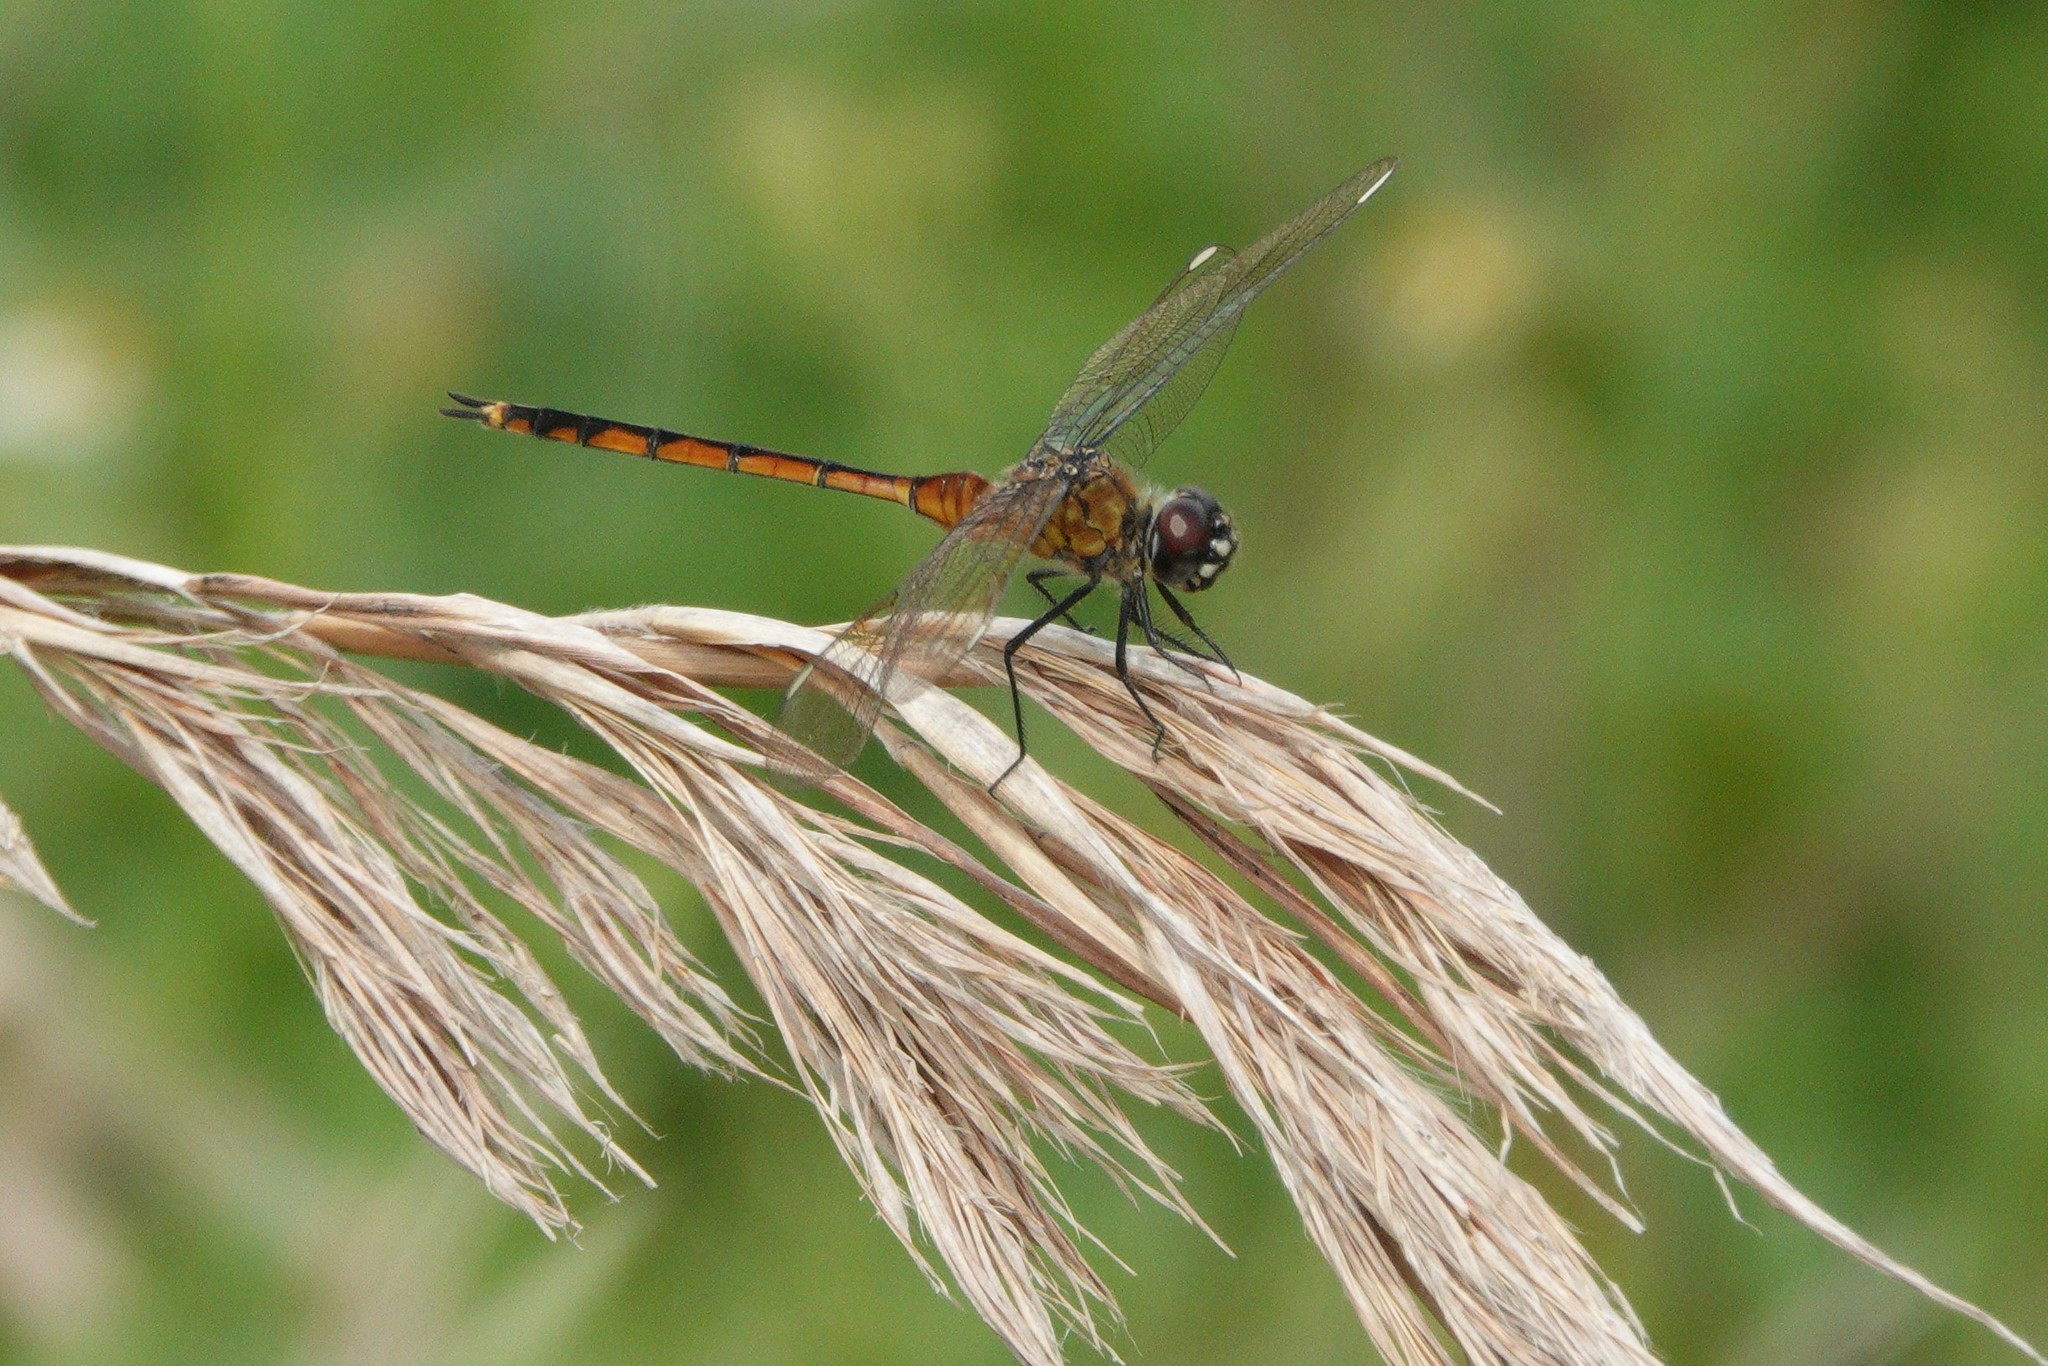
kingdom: Animalia
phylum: Arthropoda
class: Insecta
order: Odonata
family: Libellulidae
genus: Brachymesia
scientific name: Brachymesia gravida
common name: Four-spotted pennant
